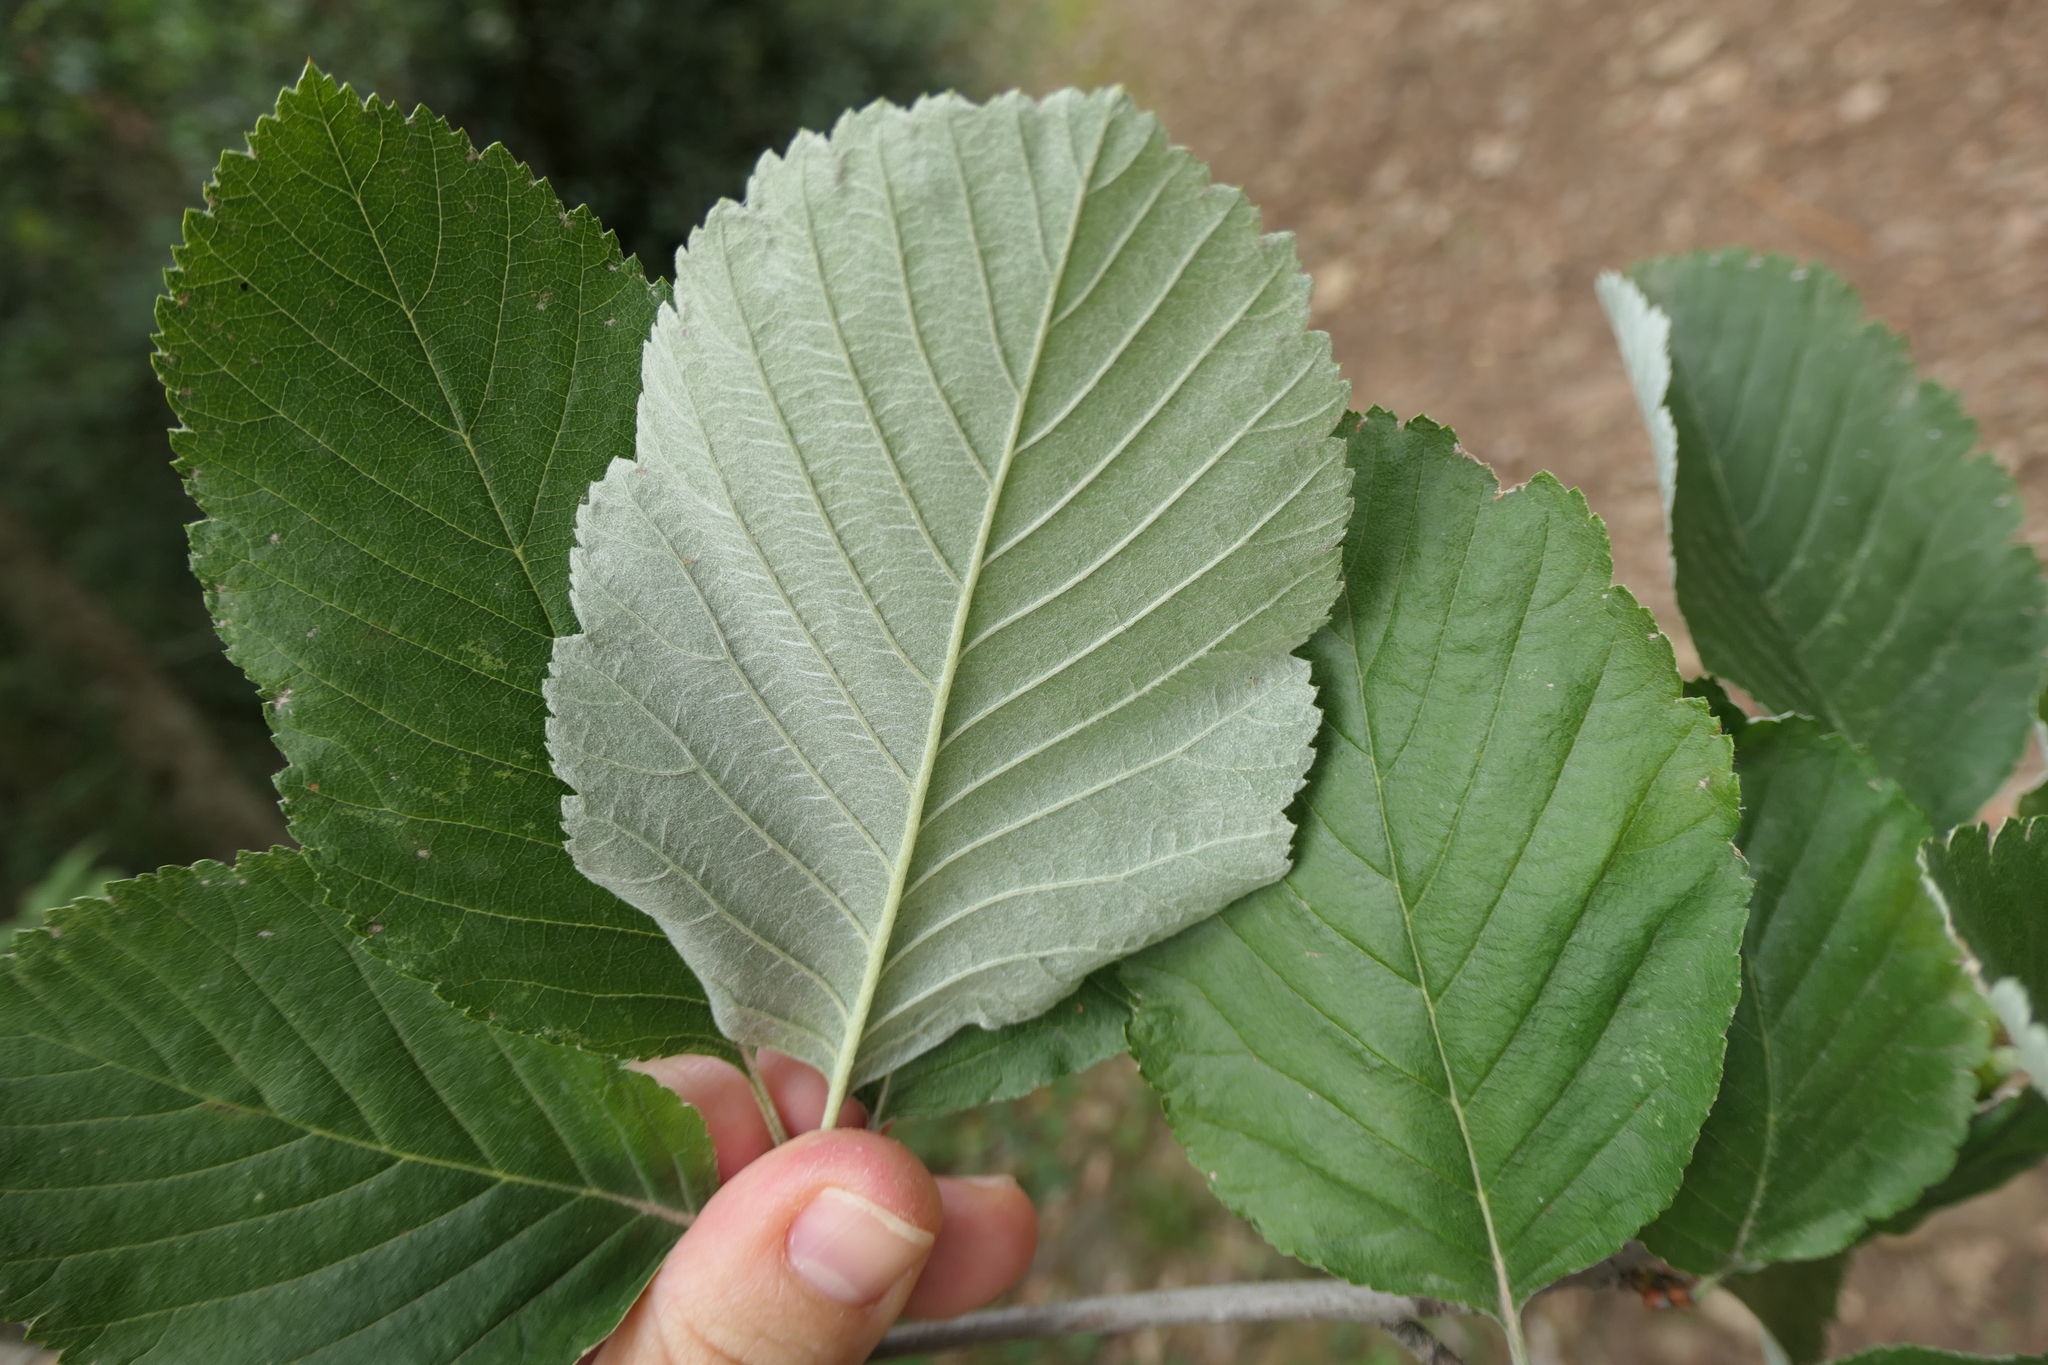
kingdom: Plantae
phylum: Tracheophyta
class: Magnoliopsida
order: Rosales
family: Rosaceae
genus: Aria
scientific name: Aria edulis
